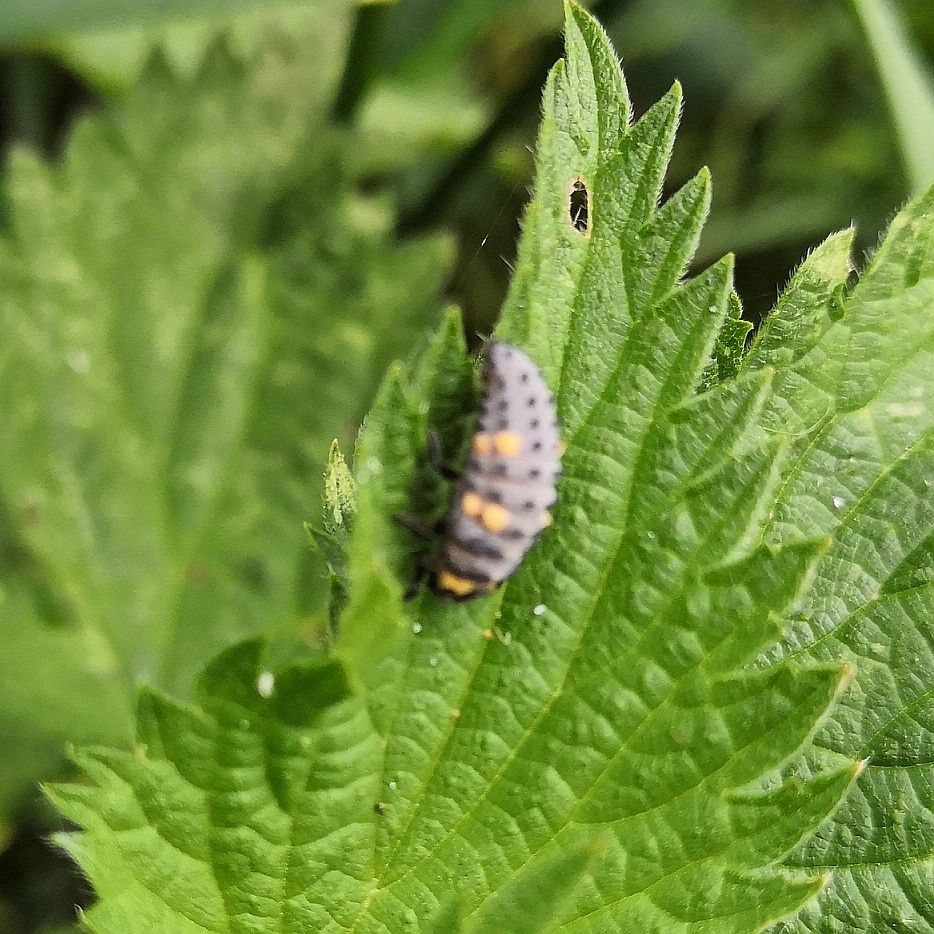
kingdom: Animalia
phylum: Arthropoda
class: Insecta
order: Coleoptera
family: Coccinellidae
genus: Coccinella
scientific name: Coccinella septempunctata
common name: Sevenspotted lady beetle
